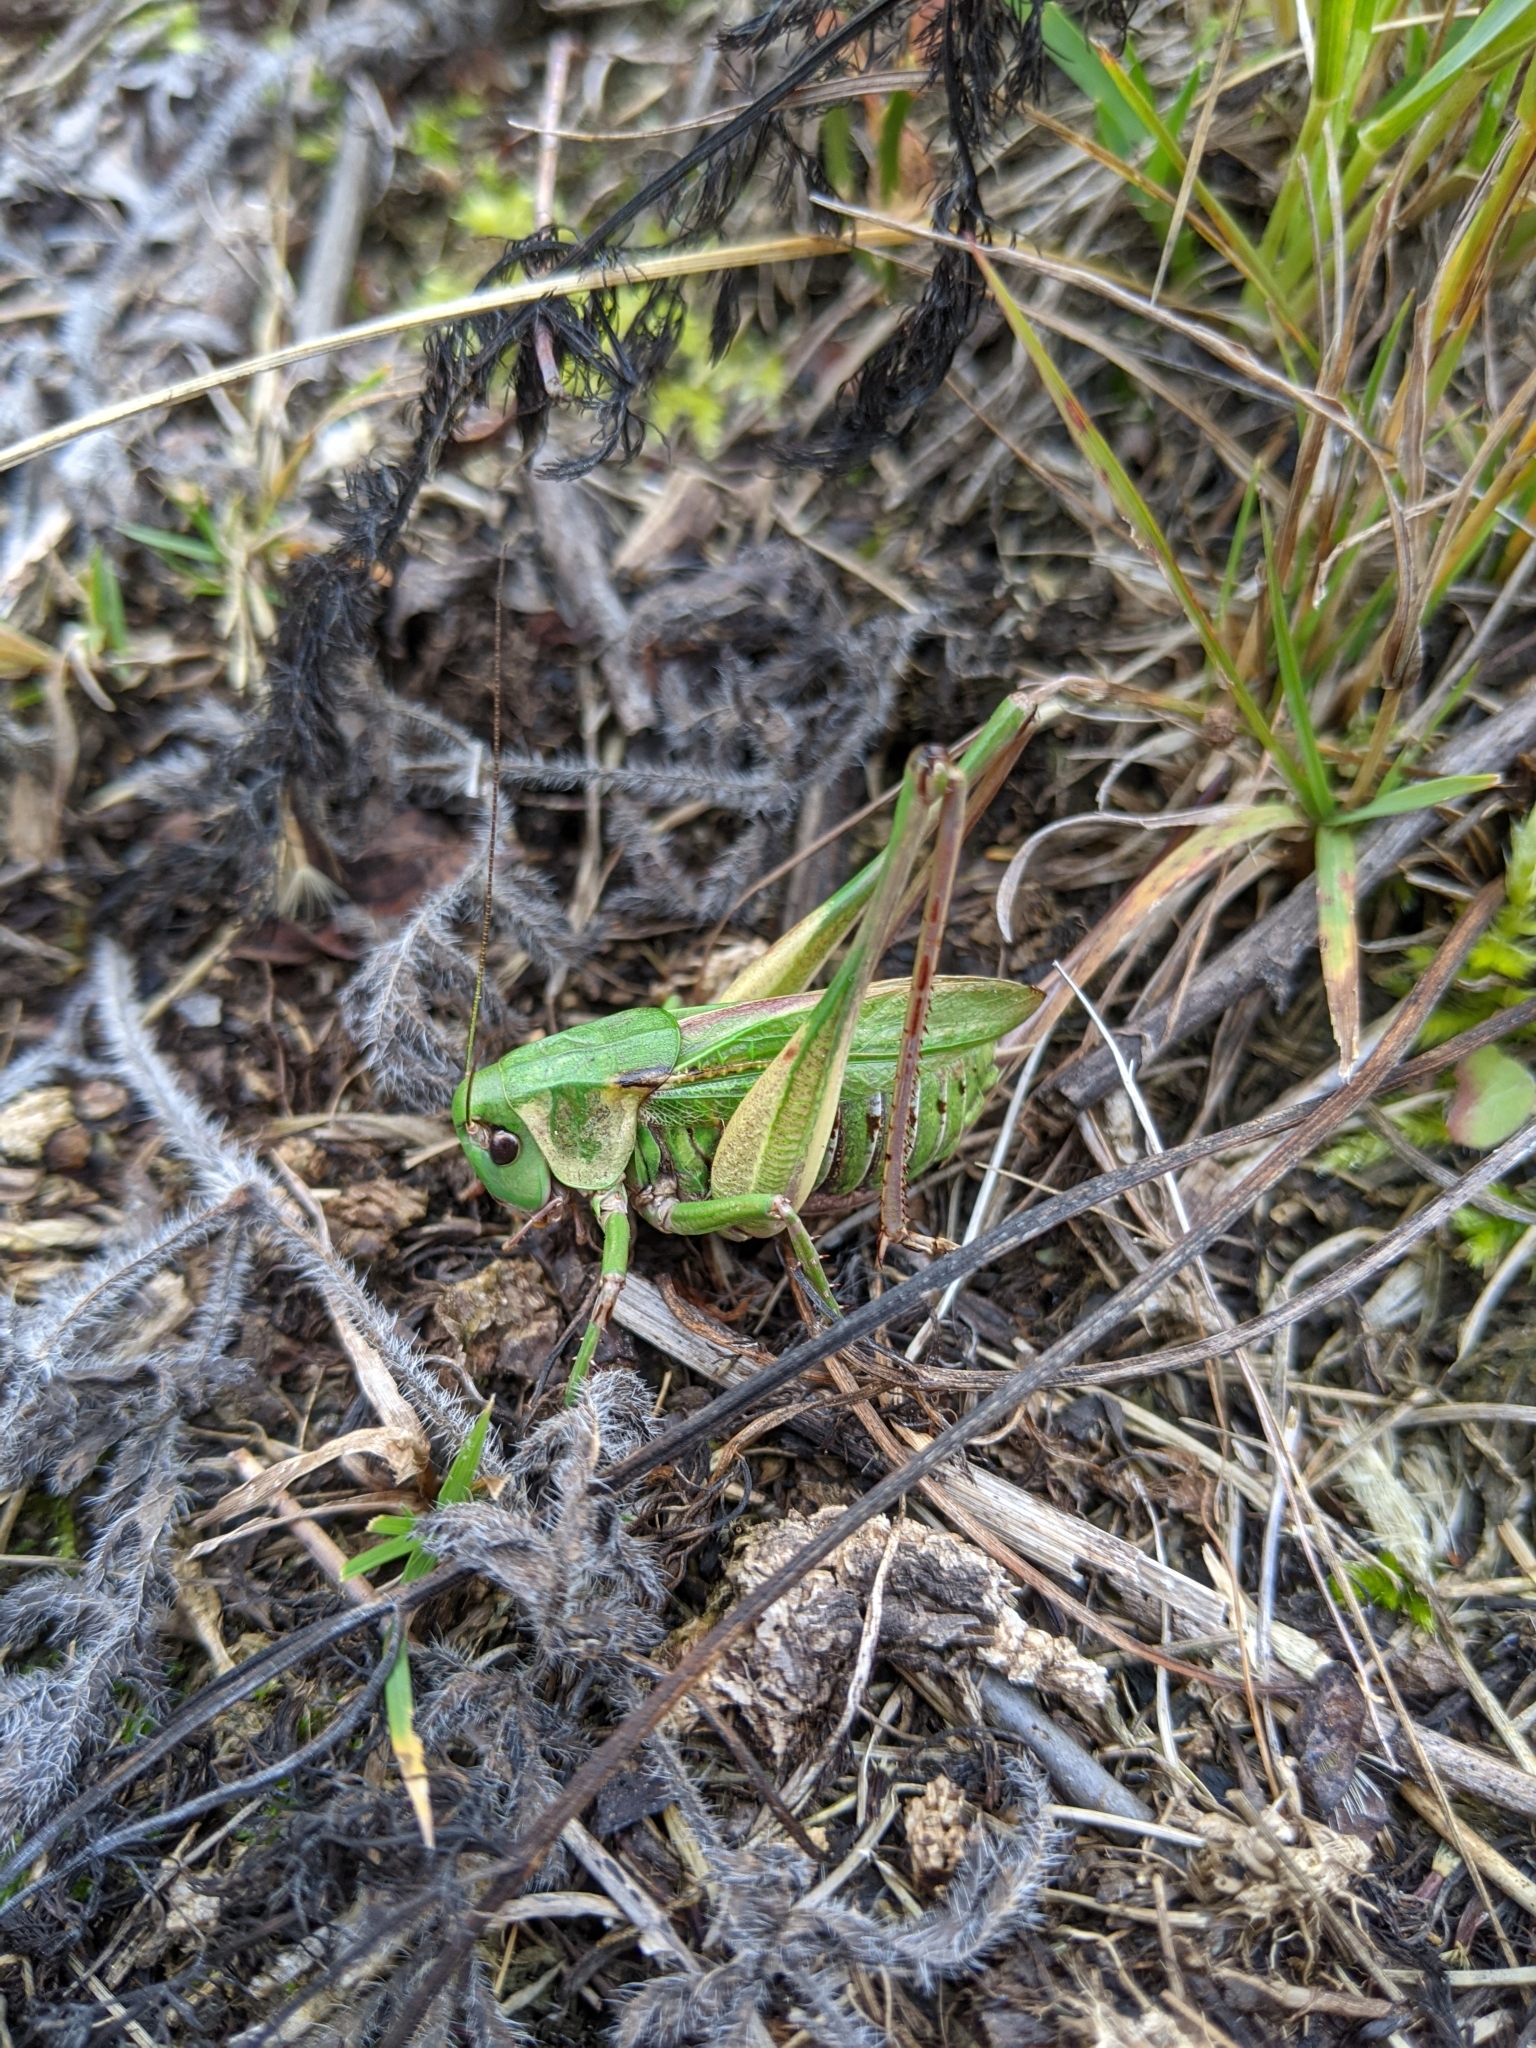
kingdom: Animalia
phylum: Arthropoda
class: Insecta
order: Orthoptera
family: Tettigoniidae
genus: Decticus
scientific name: Decticus verrucivorus
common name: Wart-biter
